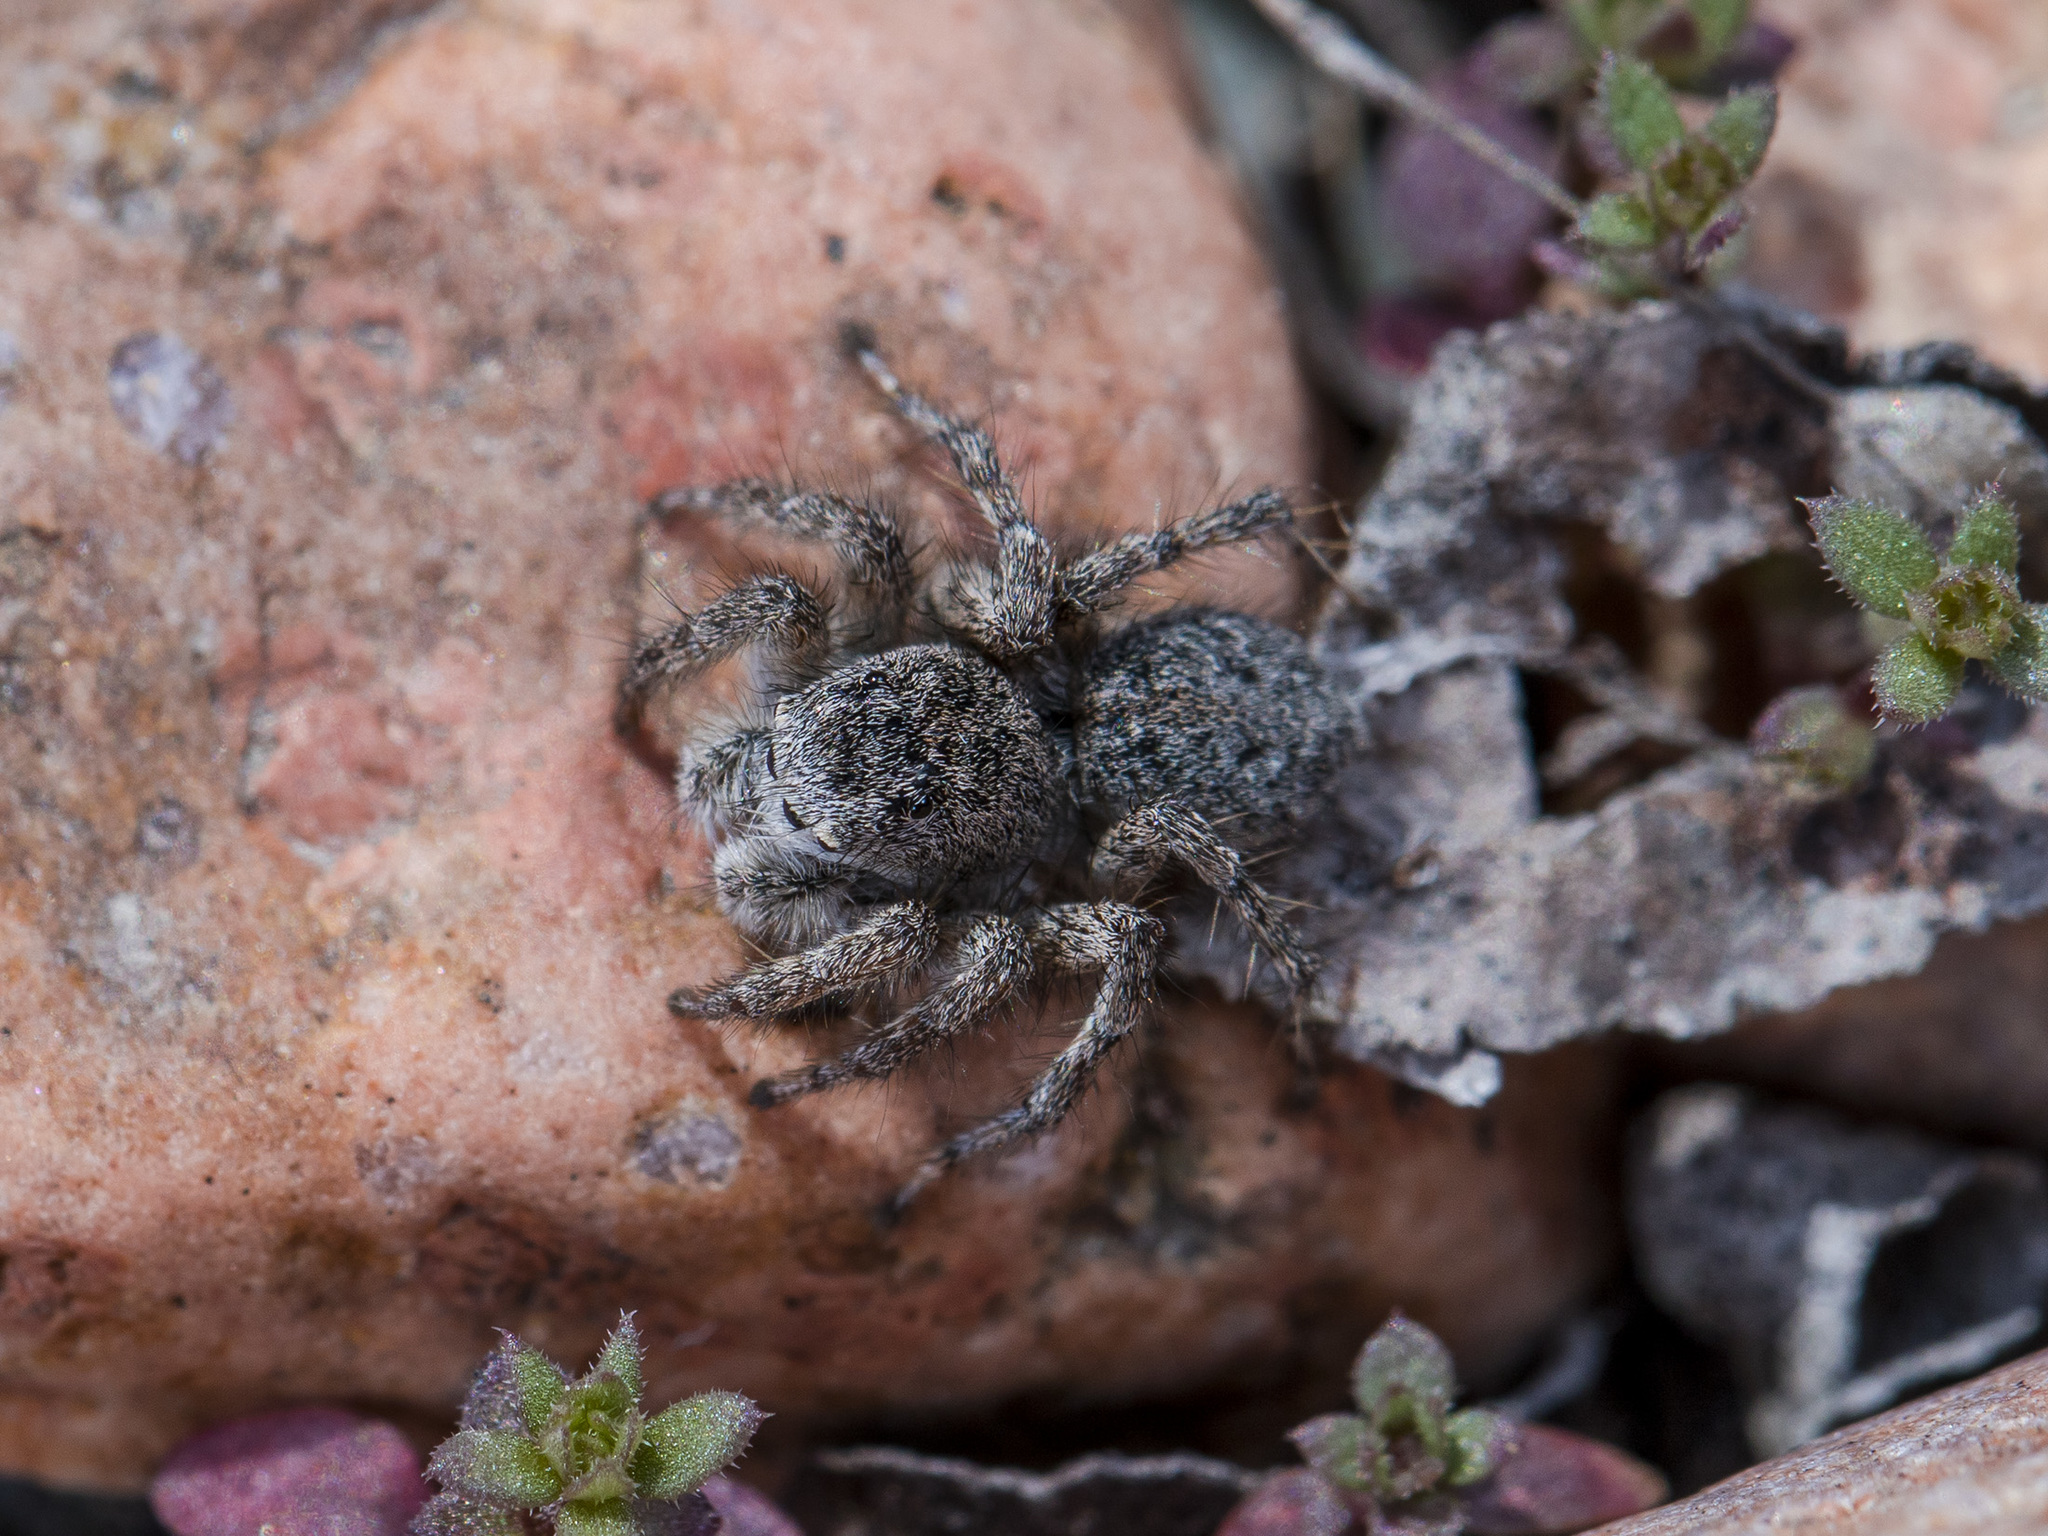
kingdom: Animalia
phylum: Arthropoda
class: Arachnida
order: Araneae
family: Salticidae
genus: Aelurillus
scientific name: Aelurillus dubatolovi
